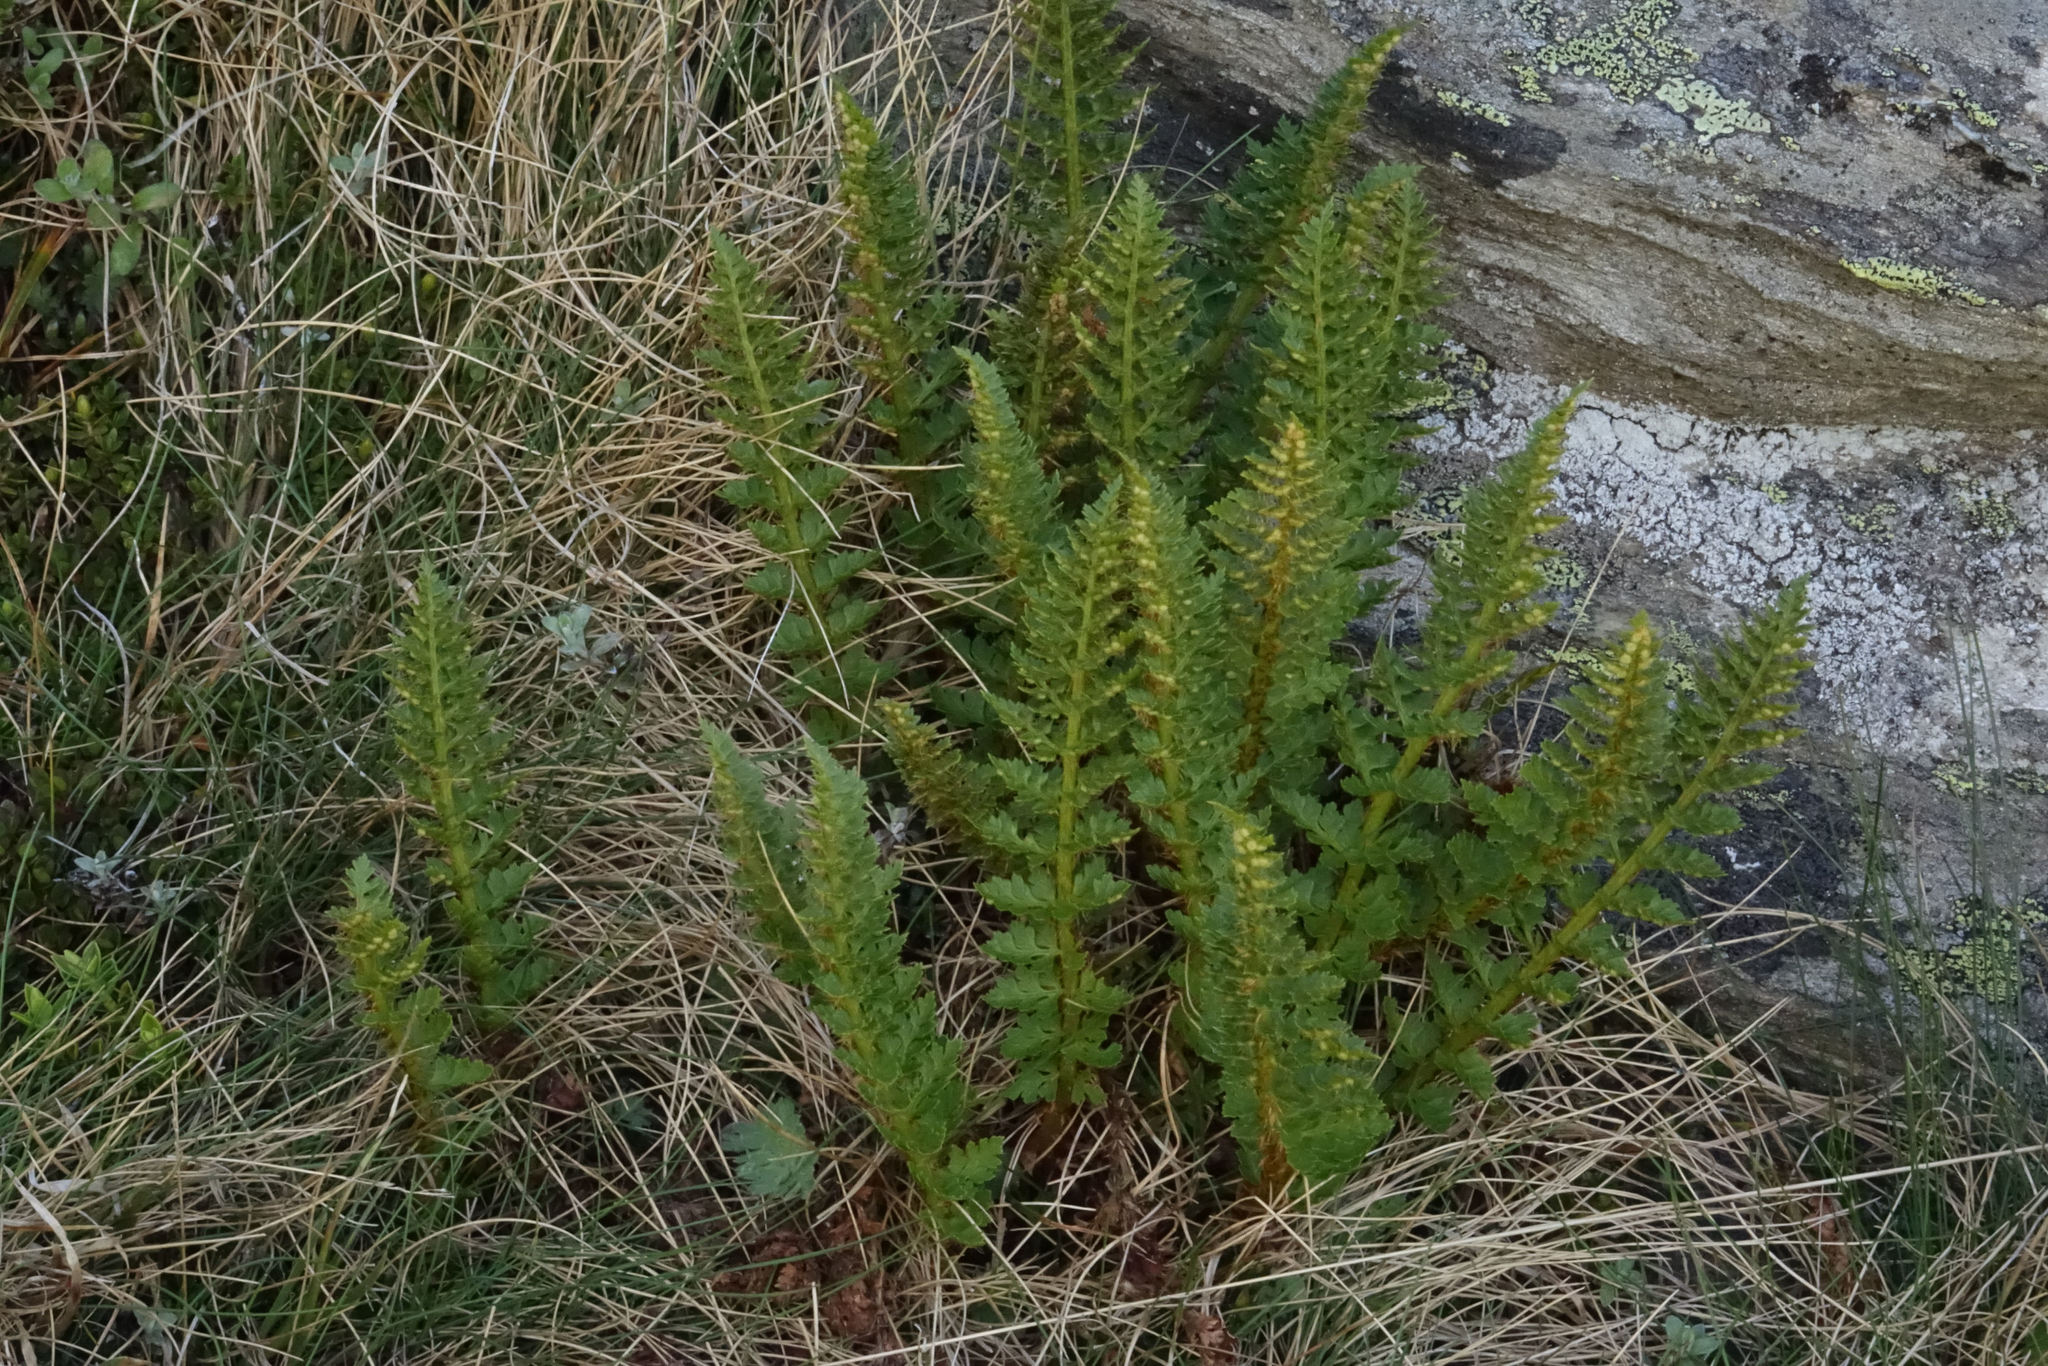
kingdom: Plantae
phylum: Tracheophyta
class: Polypodiopsida
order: Polypodiales
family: Dryopteridaceae
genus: Polystichum
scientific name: Polystichum cystostegia
